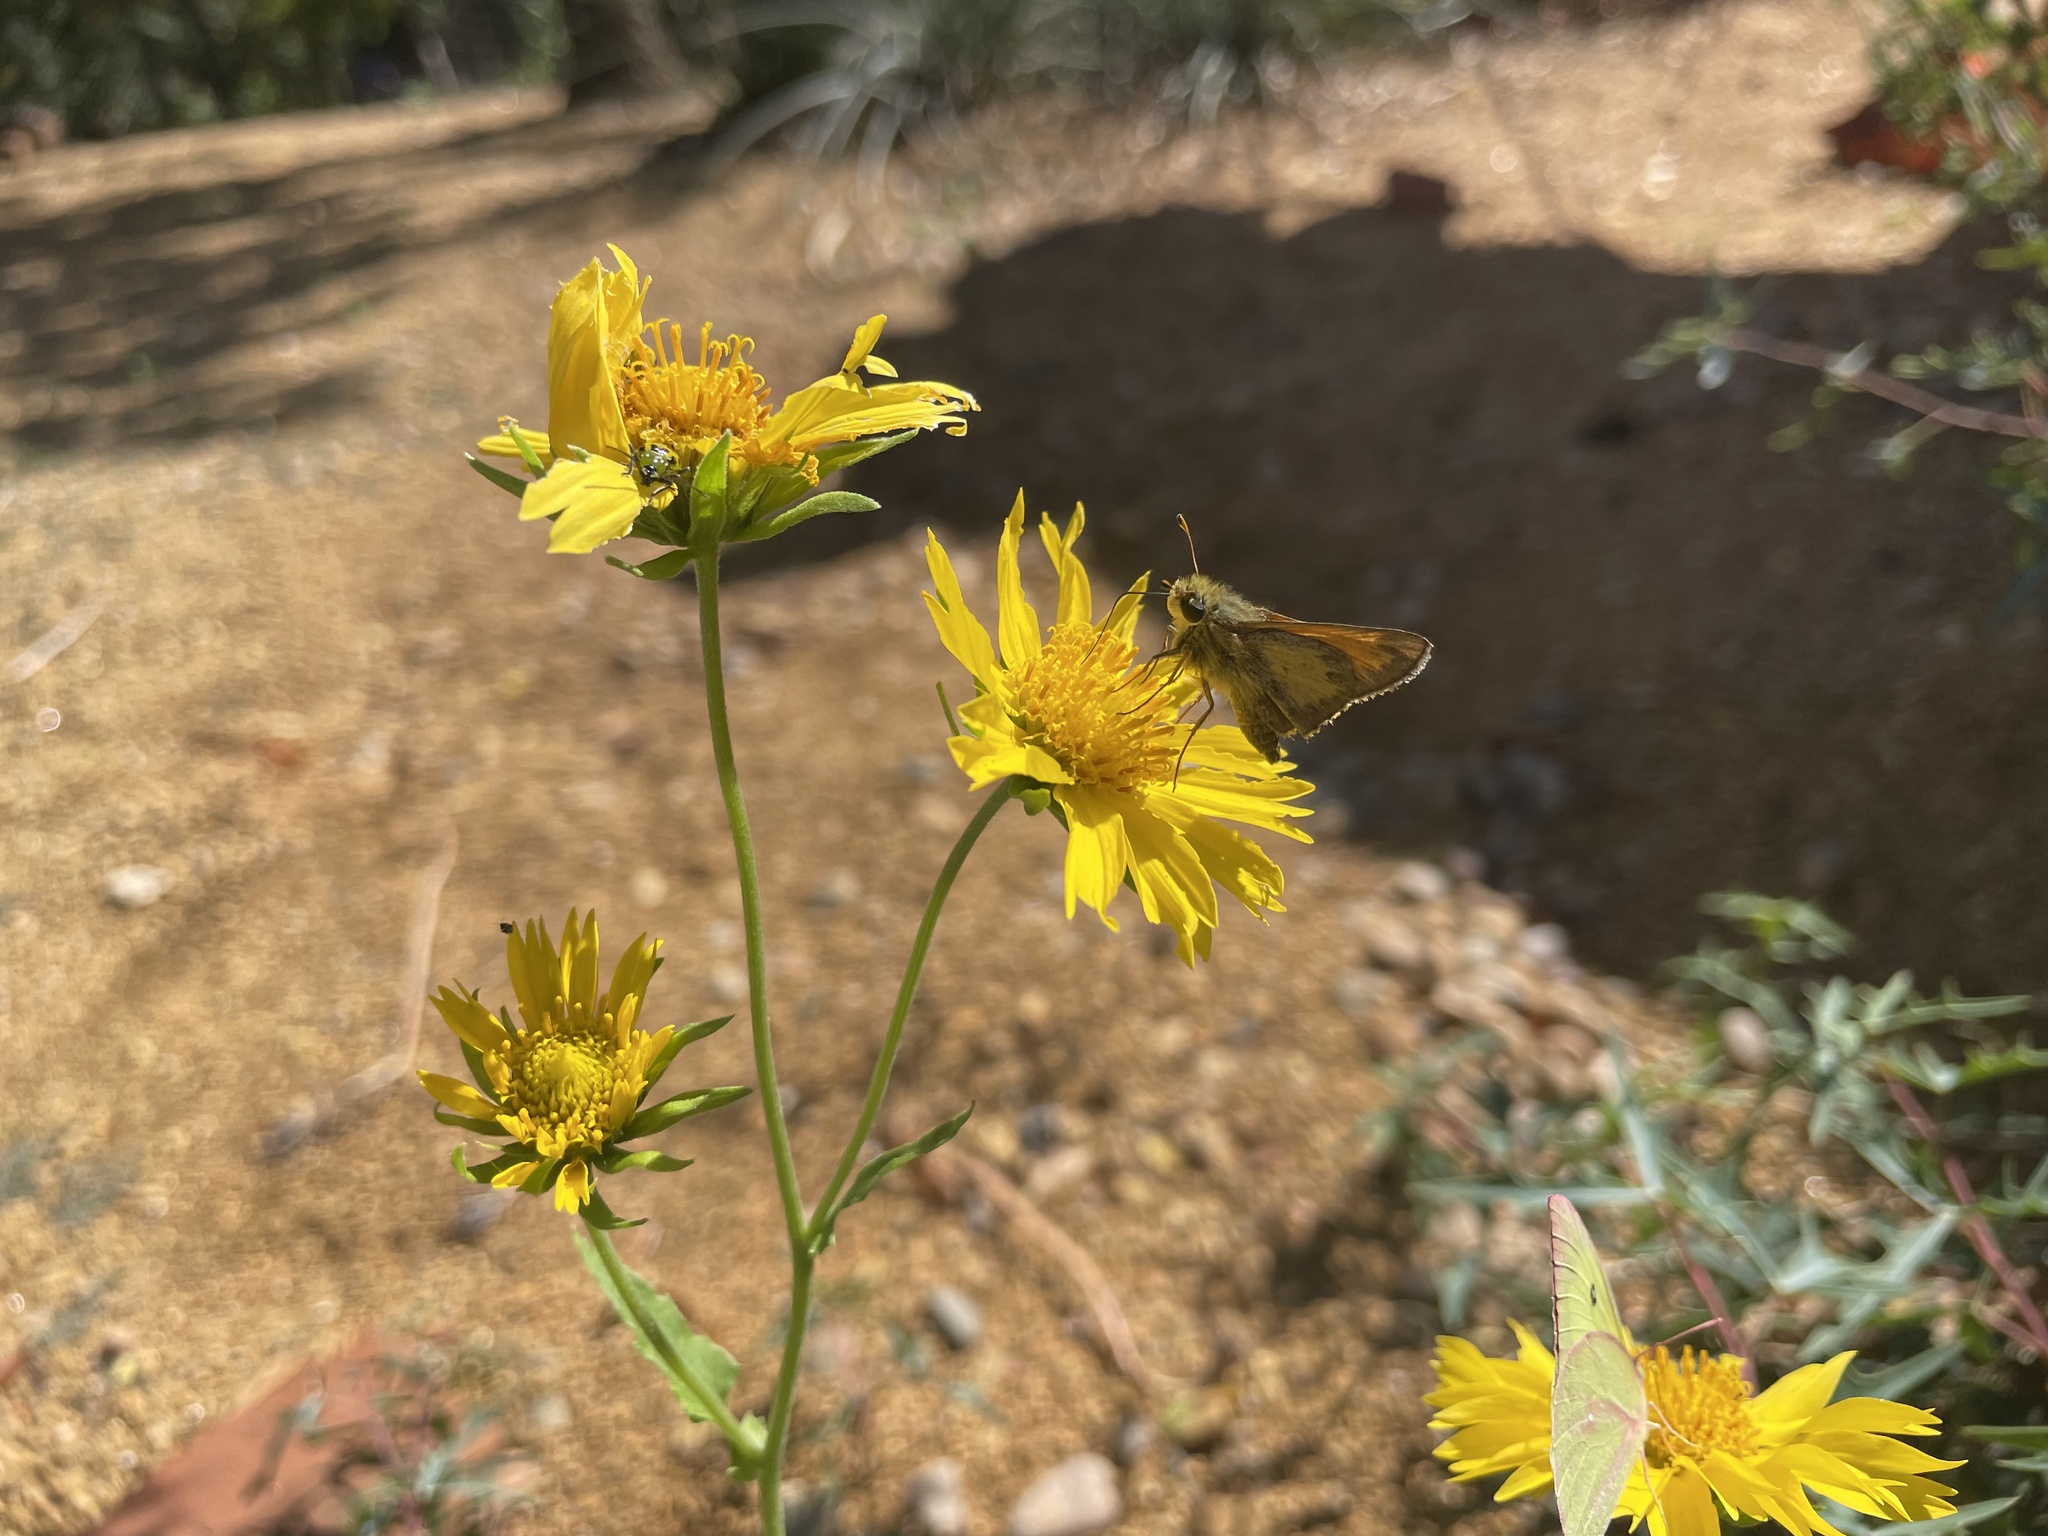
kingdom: Animalia
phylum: Arthropoda
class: Insecta
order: Lepidoptera
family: Hesperiidae
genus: Atalopedes
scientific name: Atalopedes
